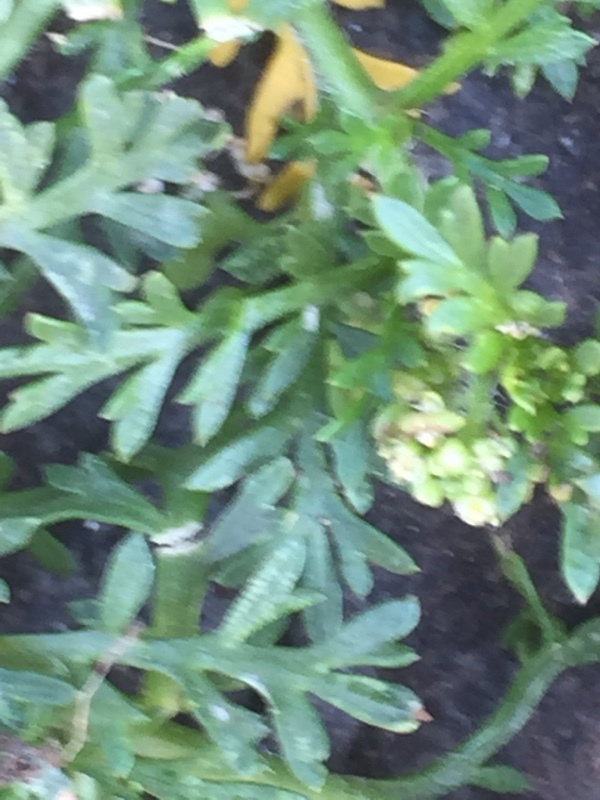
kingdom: Plantae
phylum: Tracheophyta
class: Magnoliopsida
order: Brassicales
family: Brassicaceae
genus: Lepidium
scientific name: Lepidium didymum
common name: Lesser swinecress
